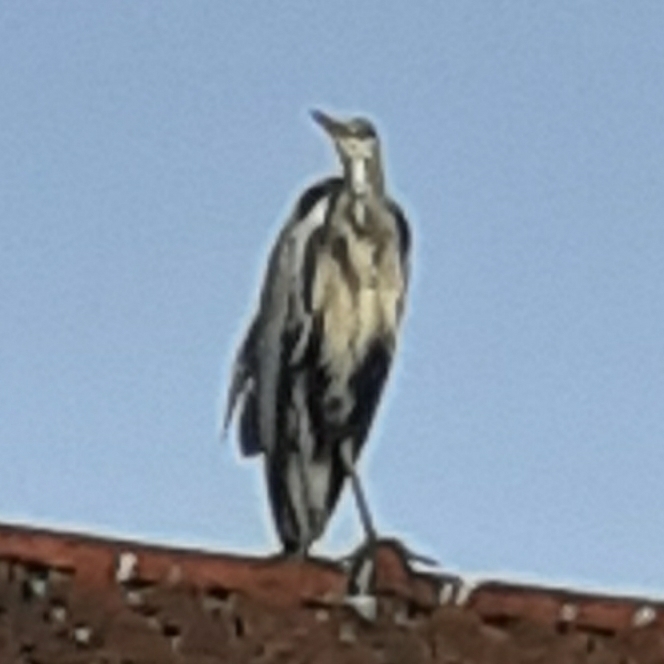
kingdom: Animalia
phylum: Chordata
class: Aves
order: Pelecaniformes
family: Ardeidae
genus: Ardea
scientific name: Ardea cinerea
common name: Grey heron
